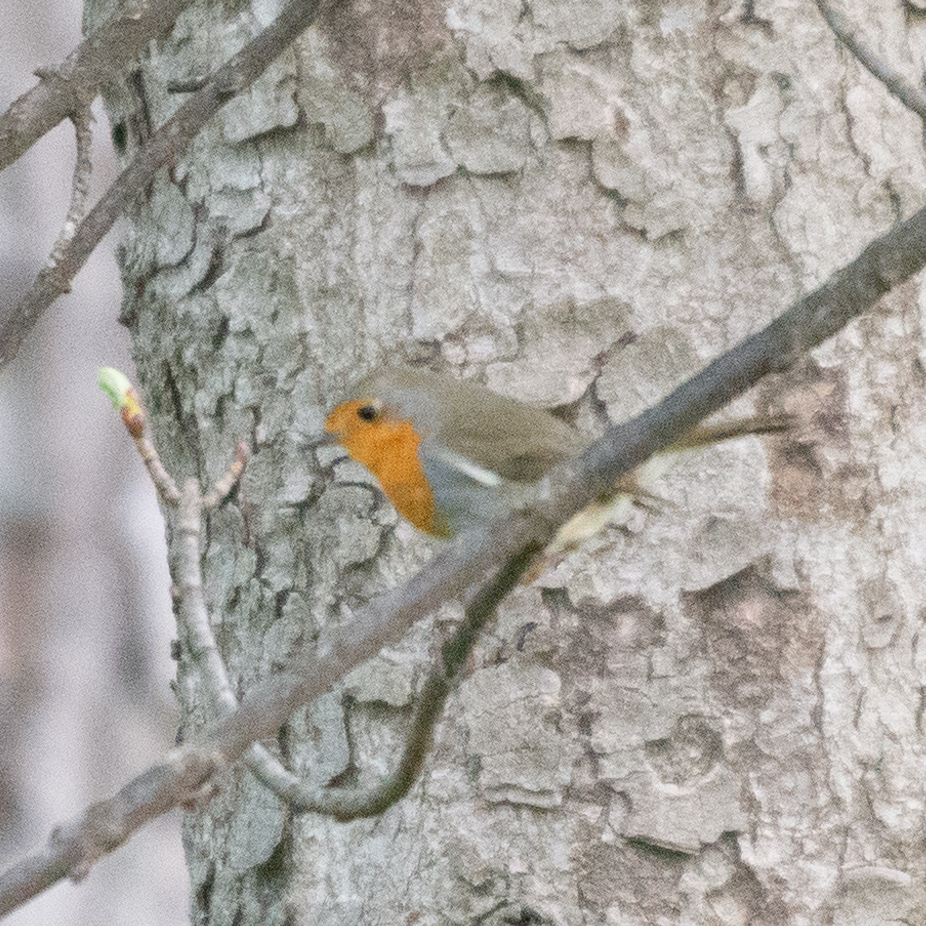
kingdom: Animalia
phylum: Chordata
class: Aves
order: Passeriformes
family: Muscicapidae
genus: Erithacus
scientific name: Erithacus rubecula
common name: European robin
